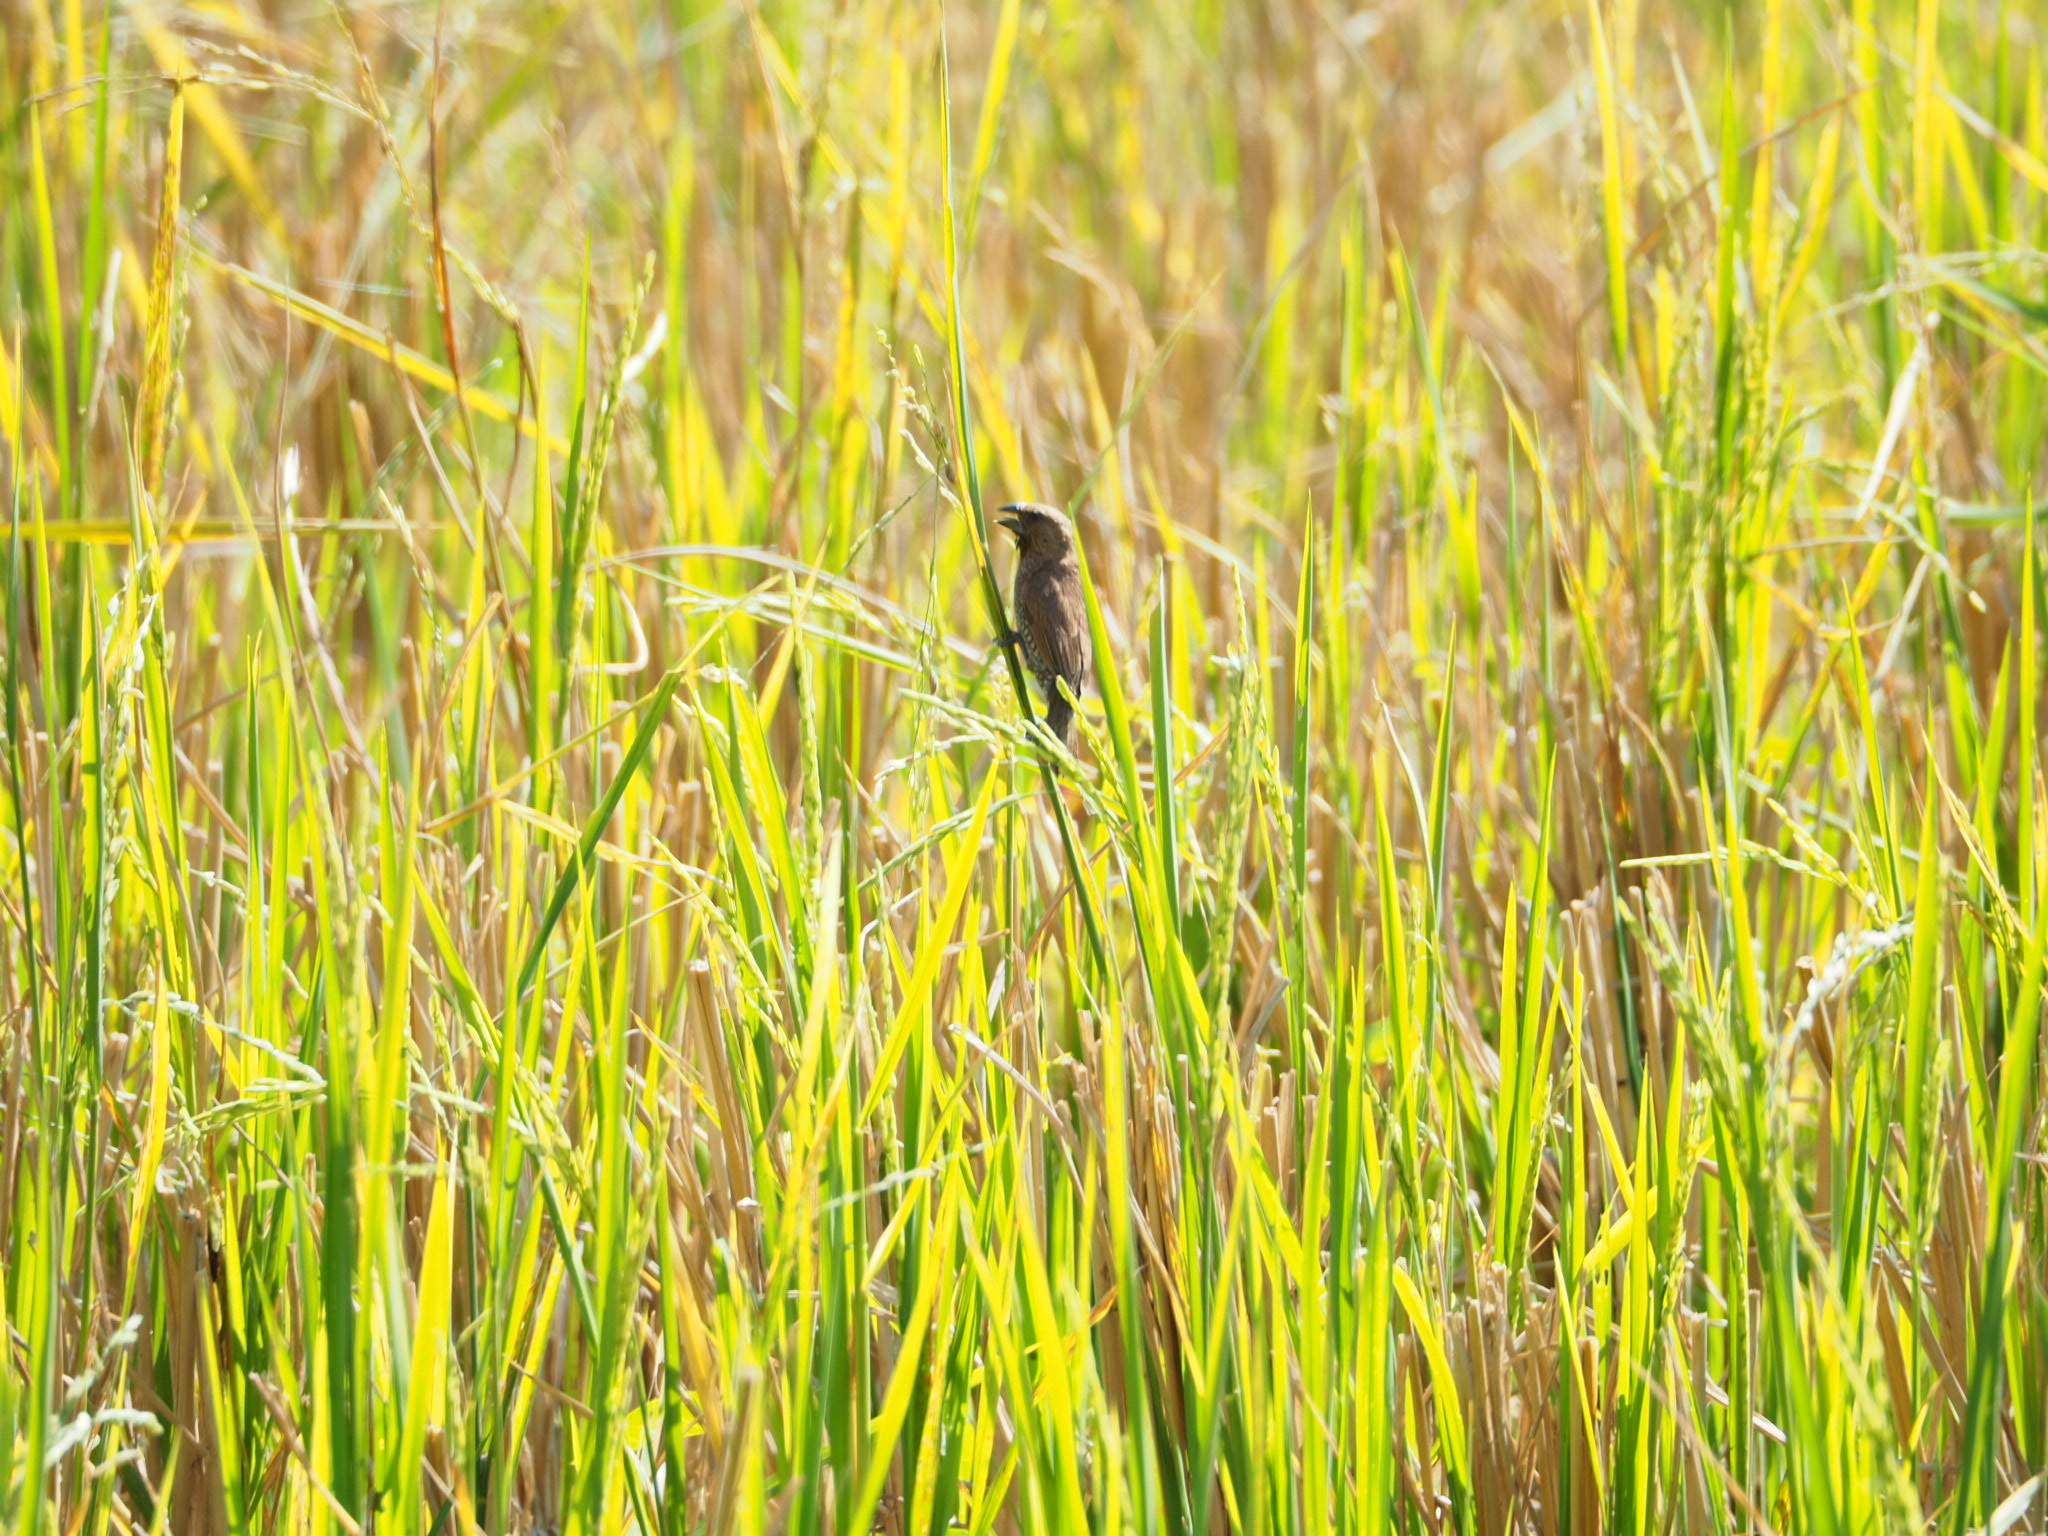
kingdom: Animalia
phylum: Chordata
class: Aves
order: Passeriformes
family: Estrildidae
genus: Lonchura
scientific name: Lonchura punctulata
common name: Scaly-breasted munia
